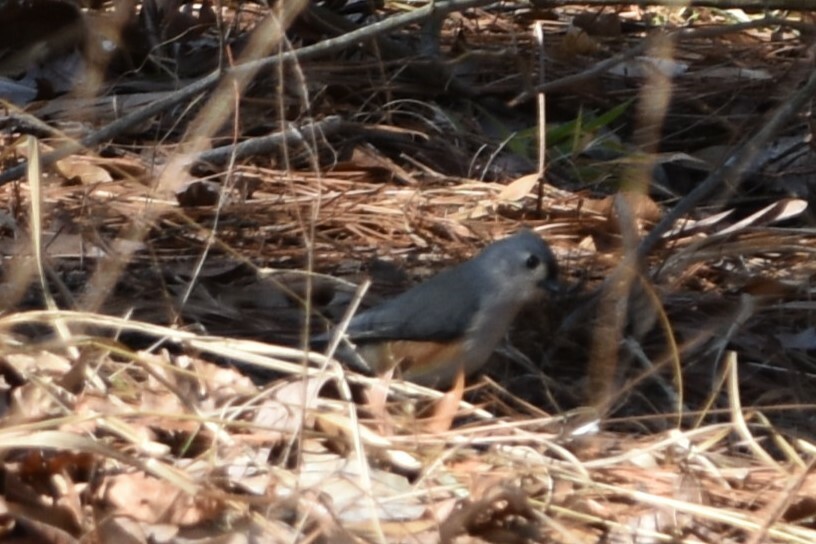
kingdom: Animalia
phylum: Chordata
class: Aves
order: Passeriformes
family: Paridae
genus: Baeolophus
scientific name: Baeolophus bicolor
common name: Tufted titmouse
